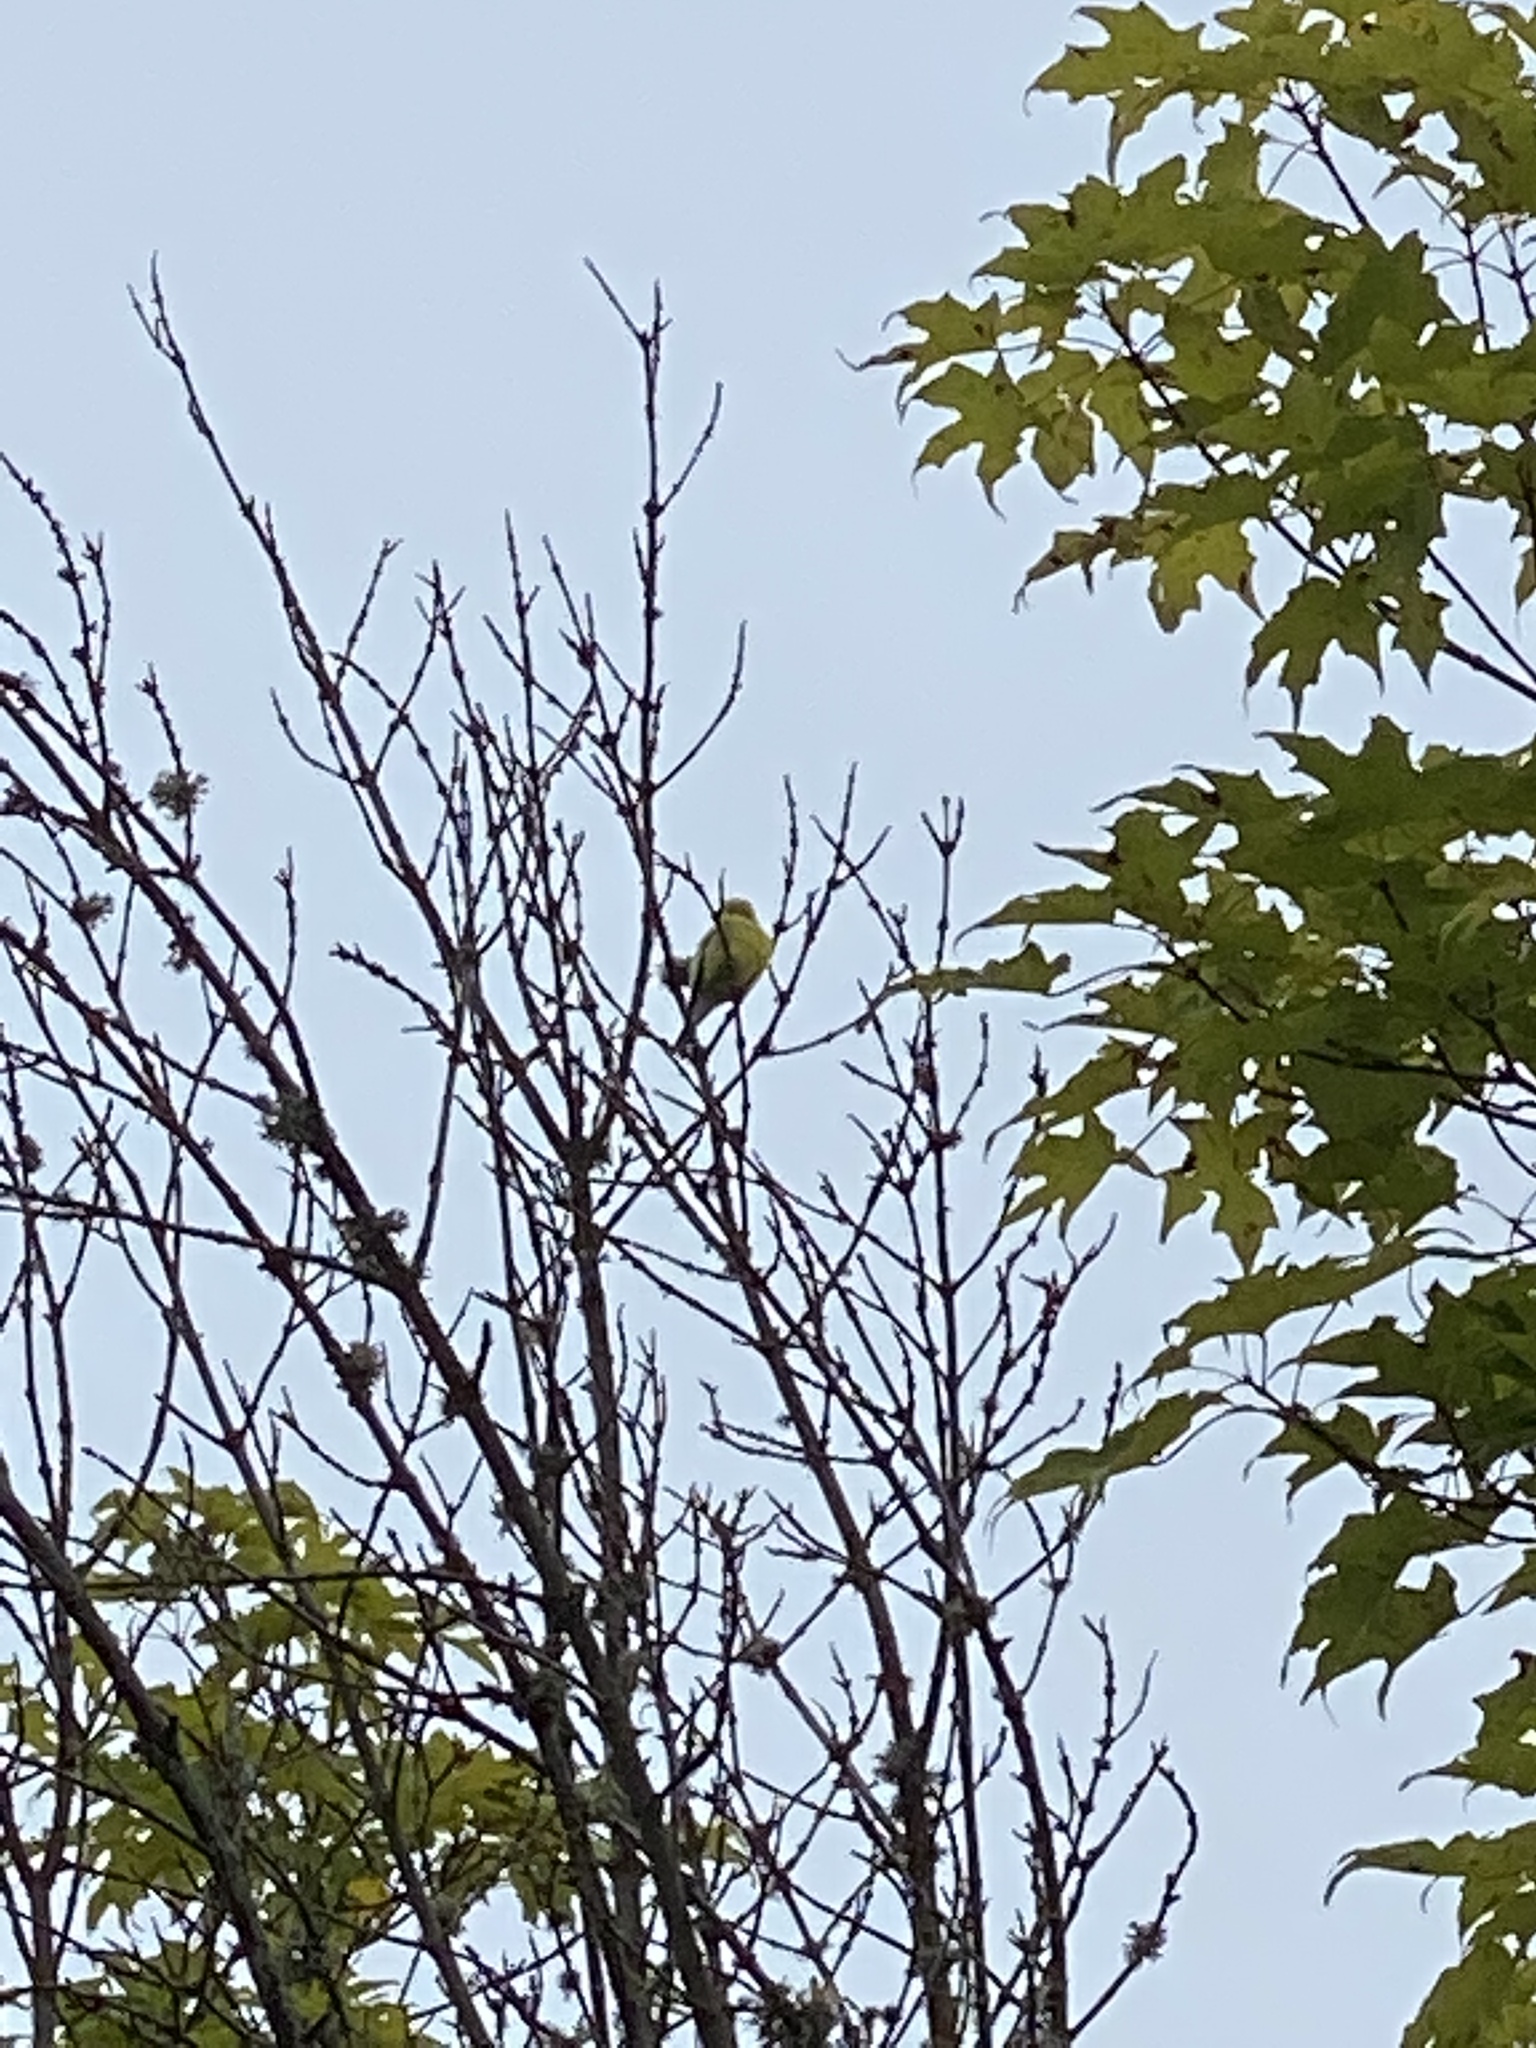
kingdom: Animalia
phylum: Chordata
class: Aves
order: Passeriformes
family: Fringillidae
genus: Spinus
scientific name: Spinus tristis
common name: American goldfinch
